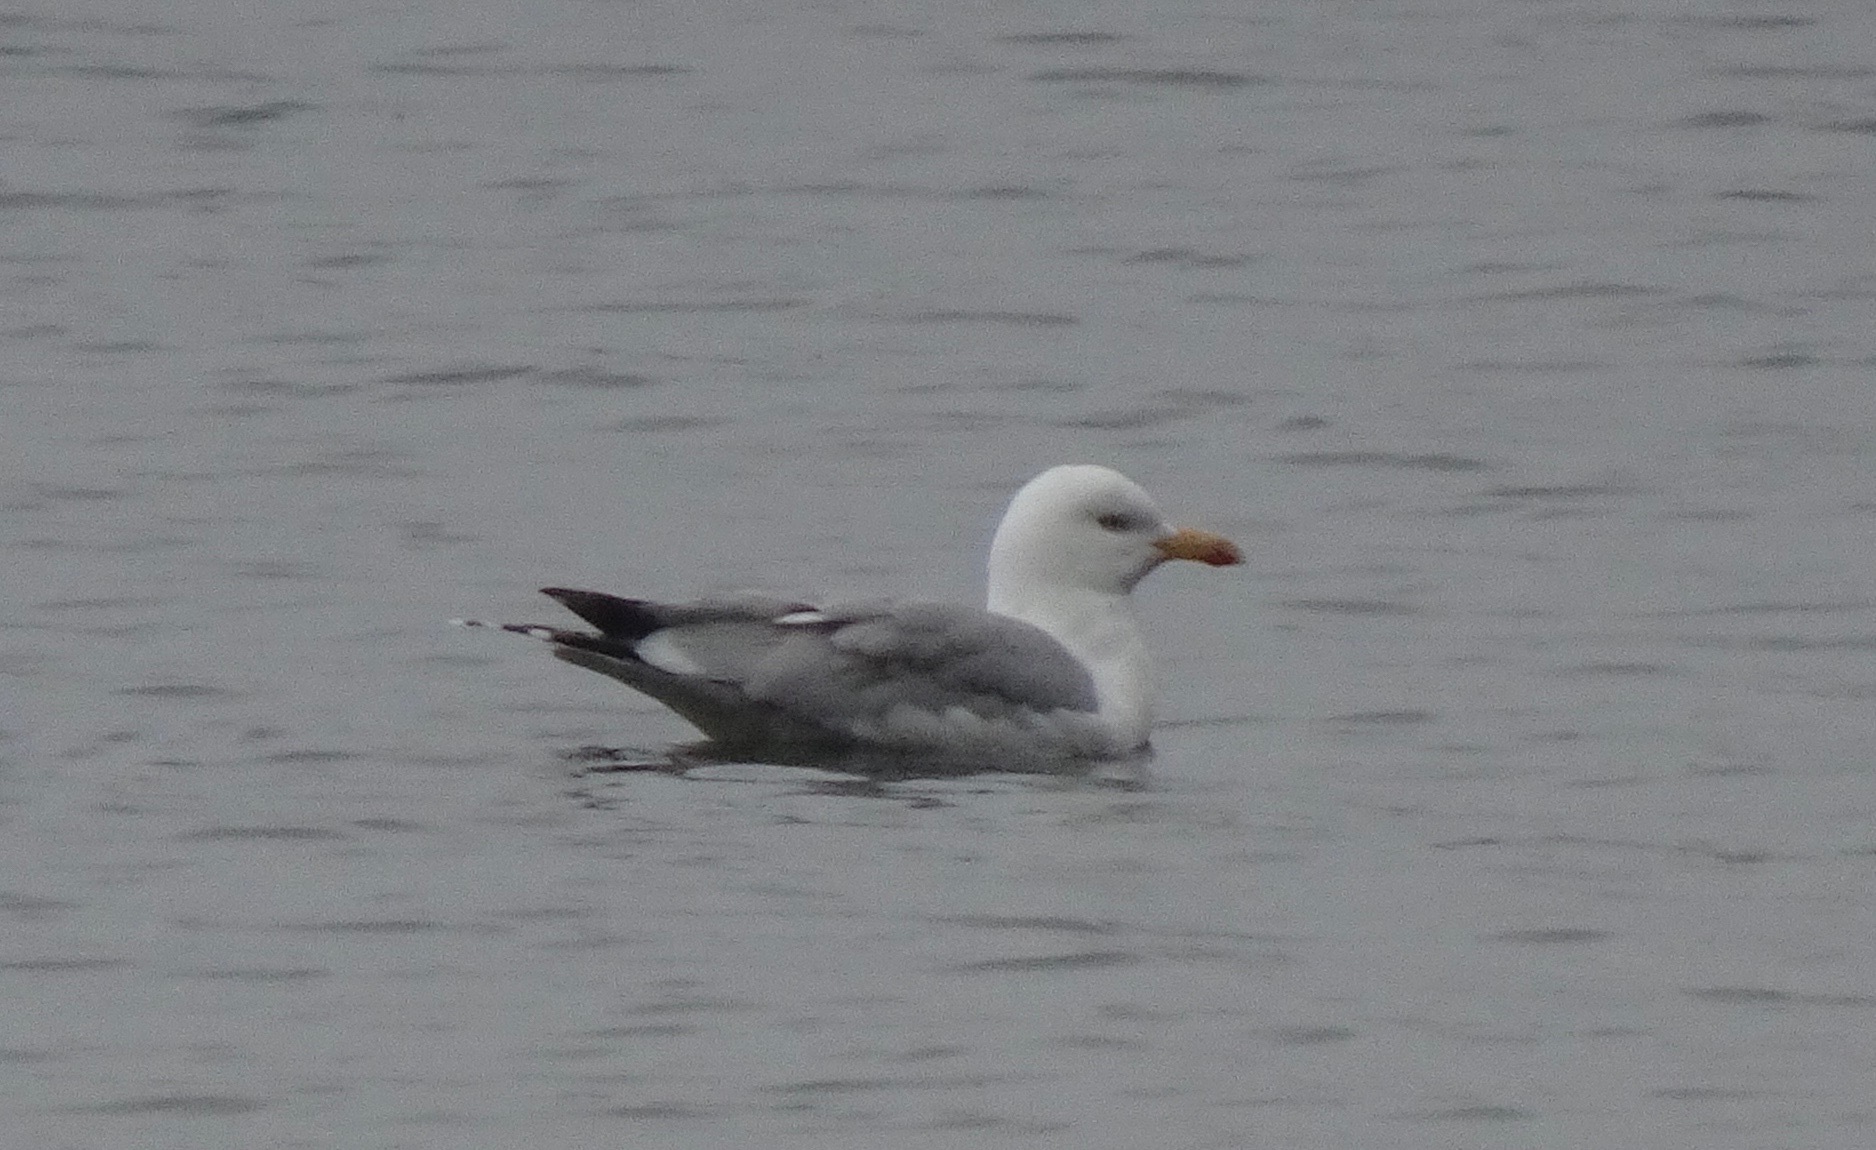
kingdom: Animalia
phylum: Chordata
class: Aves
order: Charadriiformes
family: Laridae
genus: Larus
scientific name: Larus argentatus
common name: Herring gull
